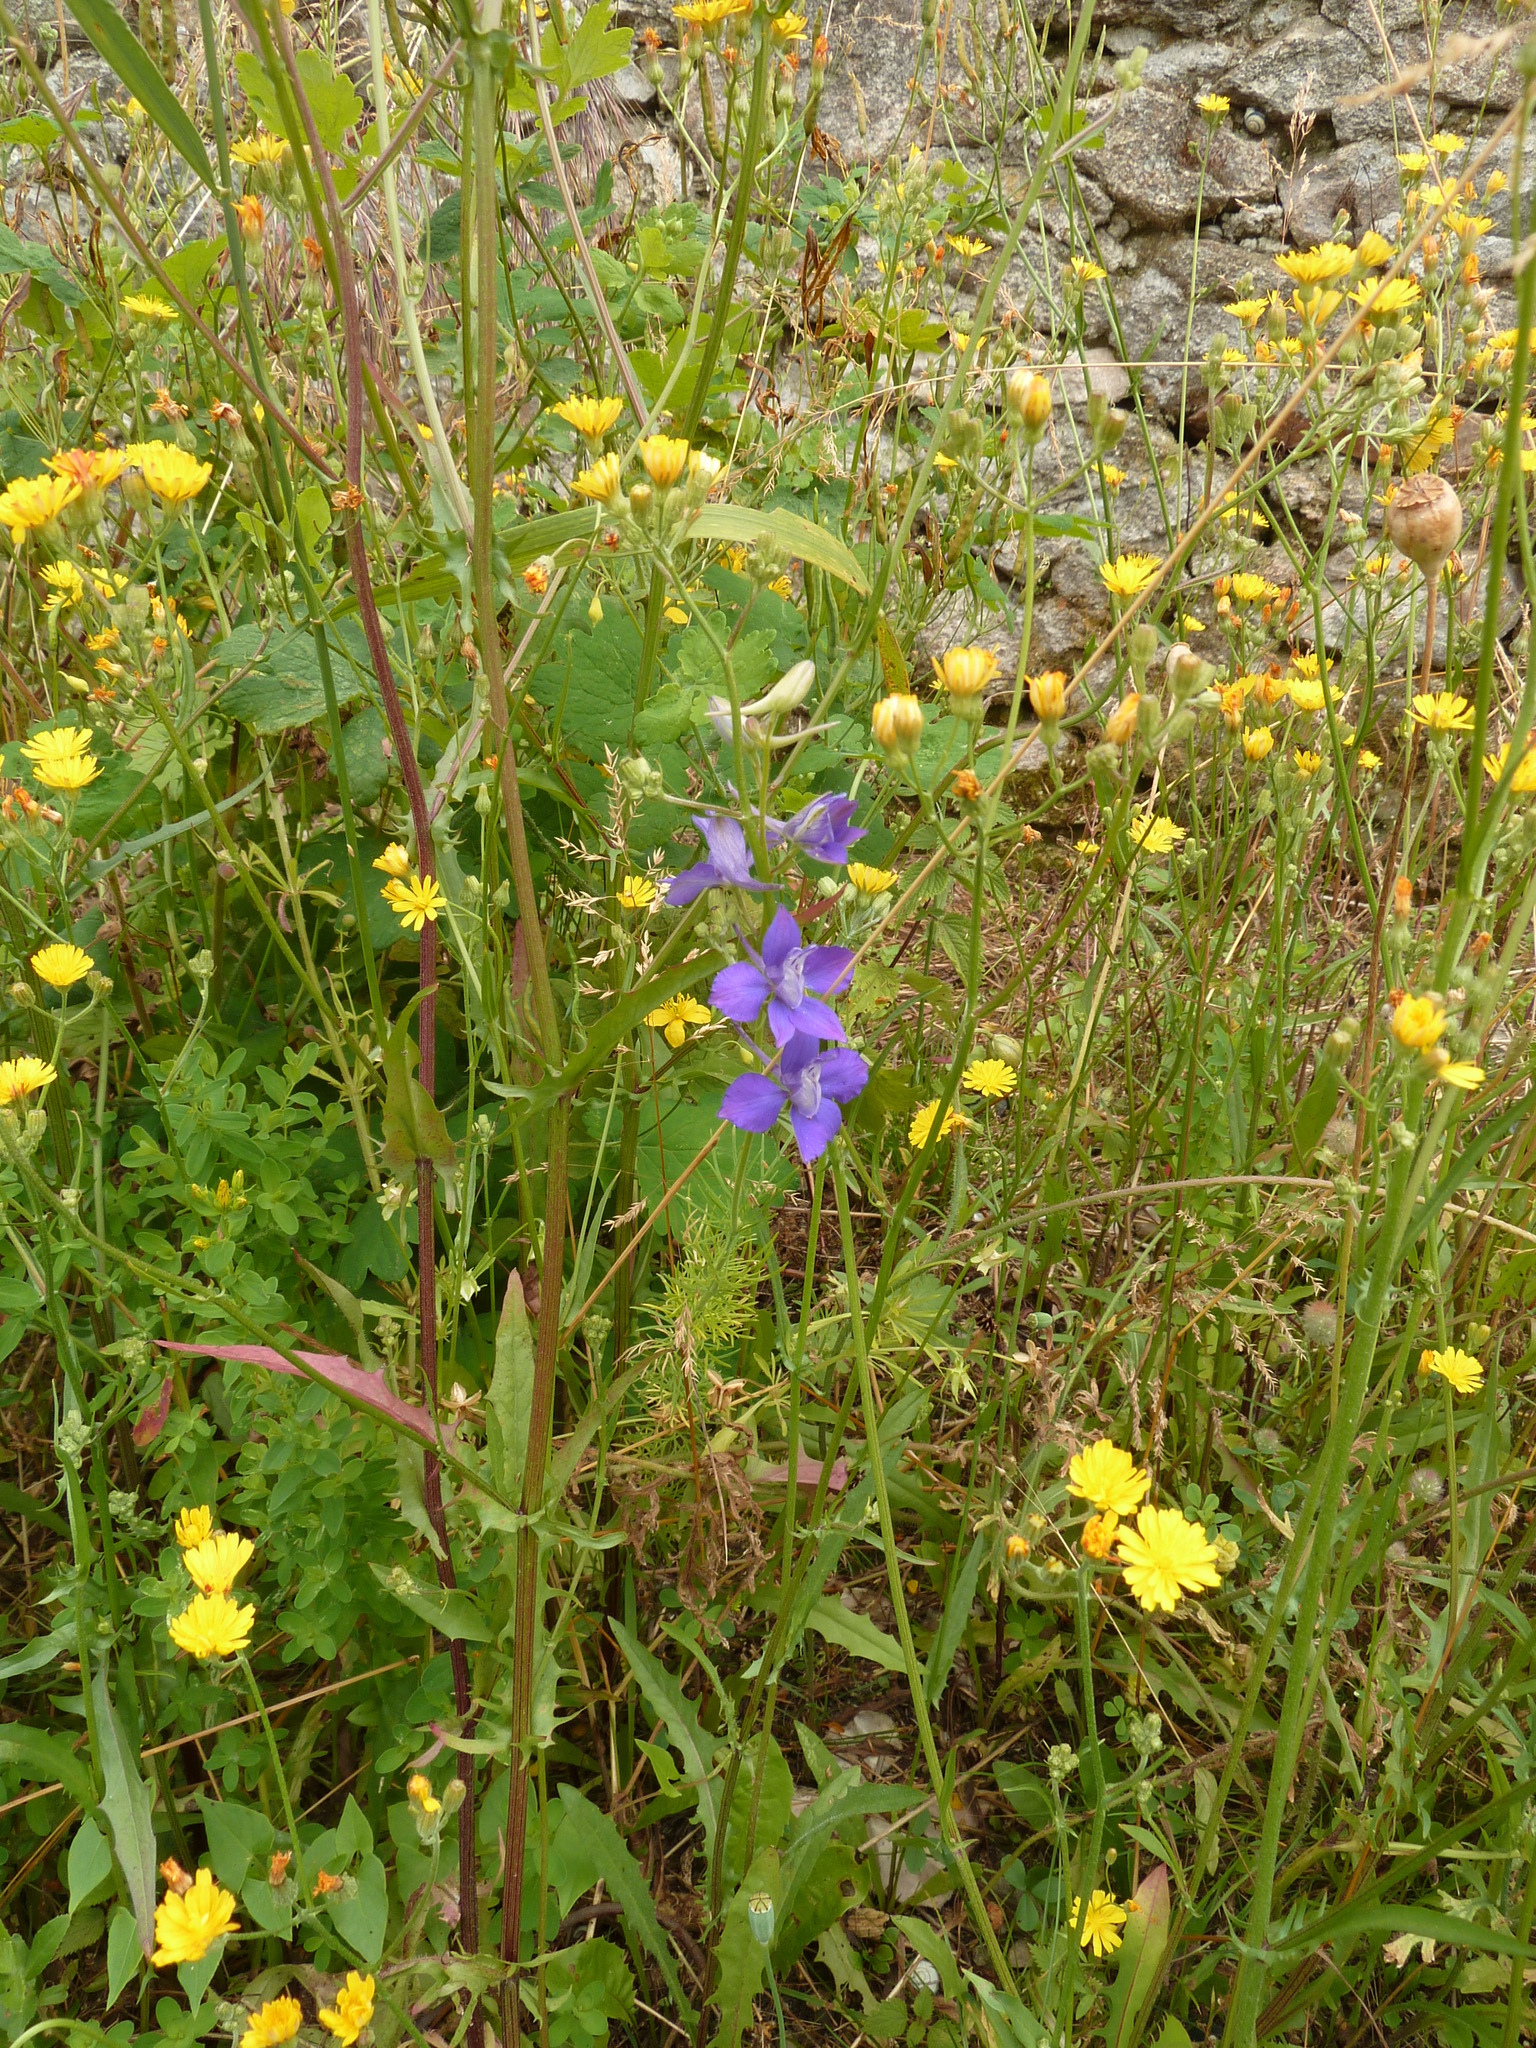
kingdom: Plantae
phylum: Tracheophyta
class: Magnoliopsida
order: Ranunculales
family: Ranunculaceae
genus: Delphinium
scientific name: Delphinium consolida
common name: Branching larkspur
